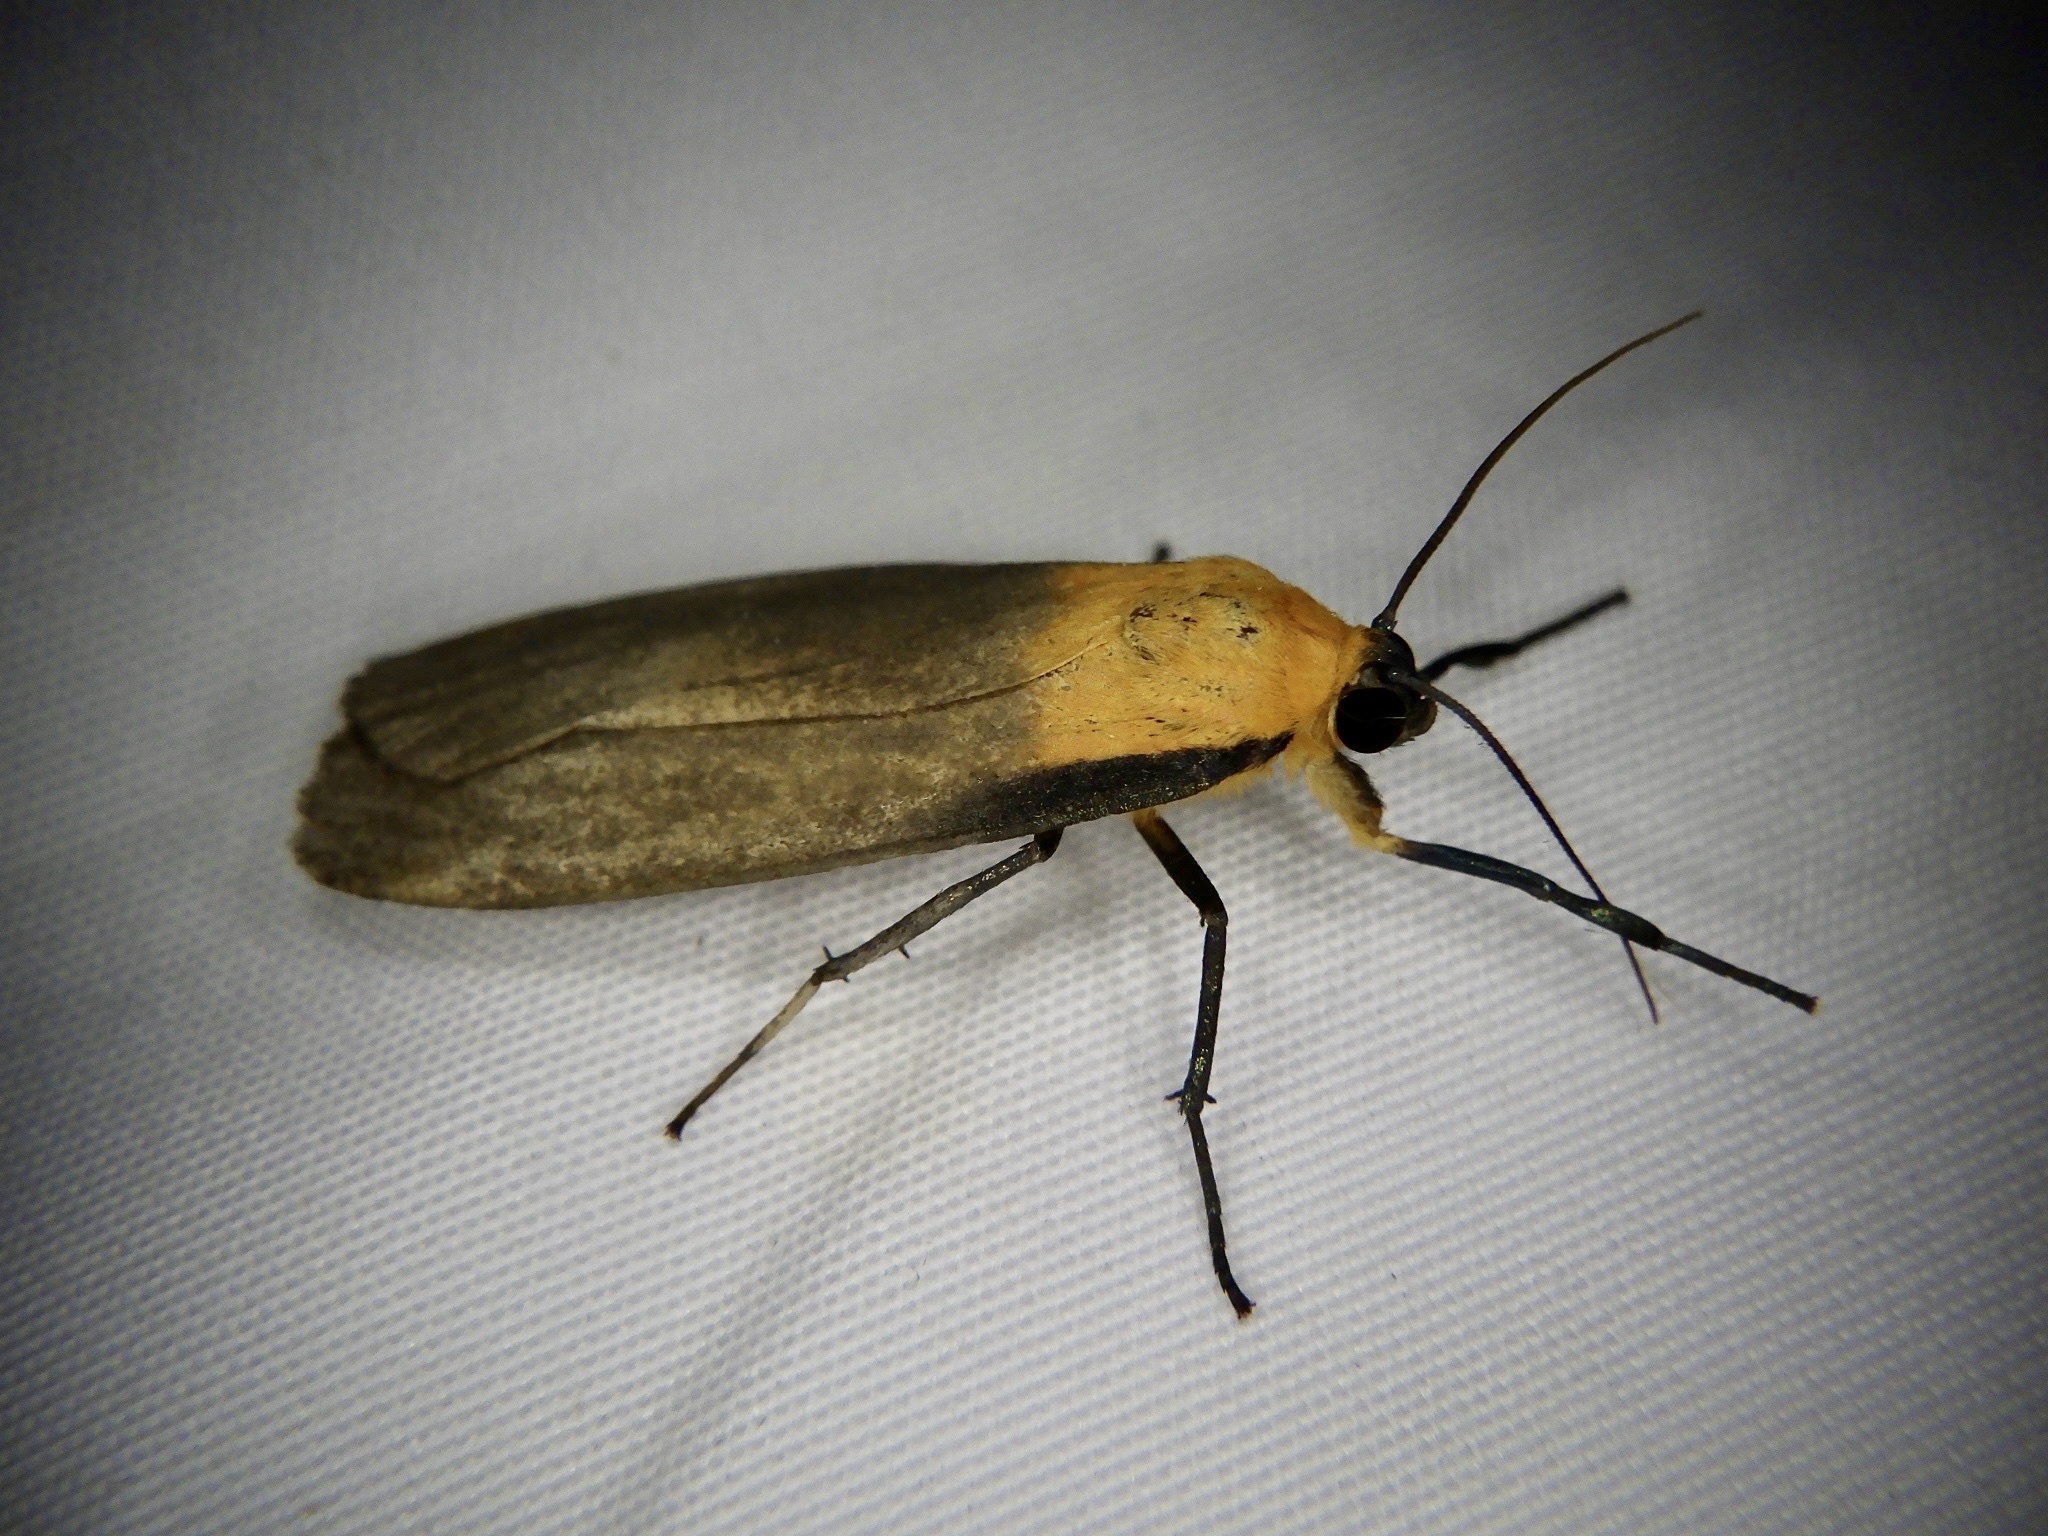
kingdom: Animalia
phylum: Arthropoda
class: Insecta
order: Lepidoptera
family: Erebidae
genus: Lithosia
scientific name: Lithosia quadra
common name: Four-spotted footman
